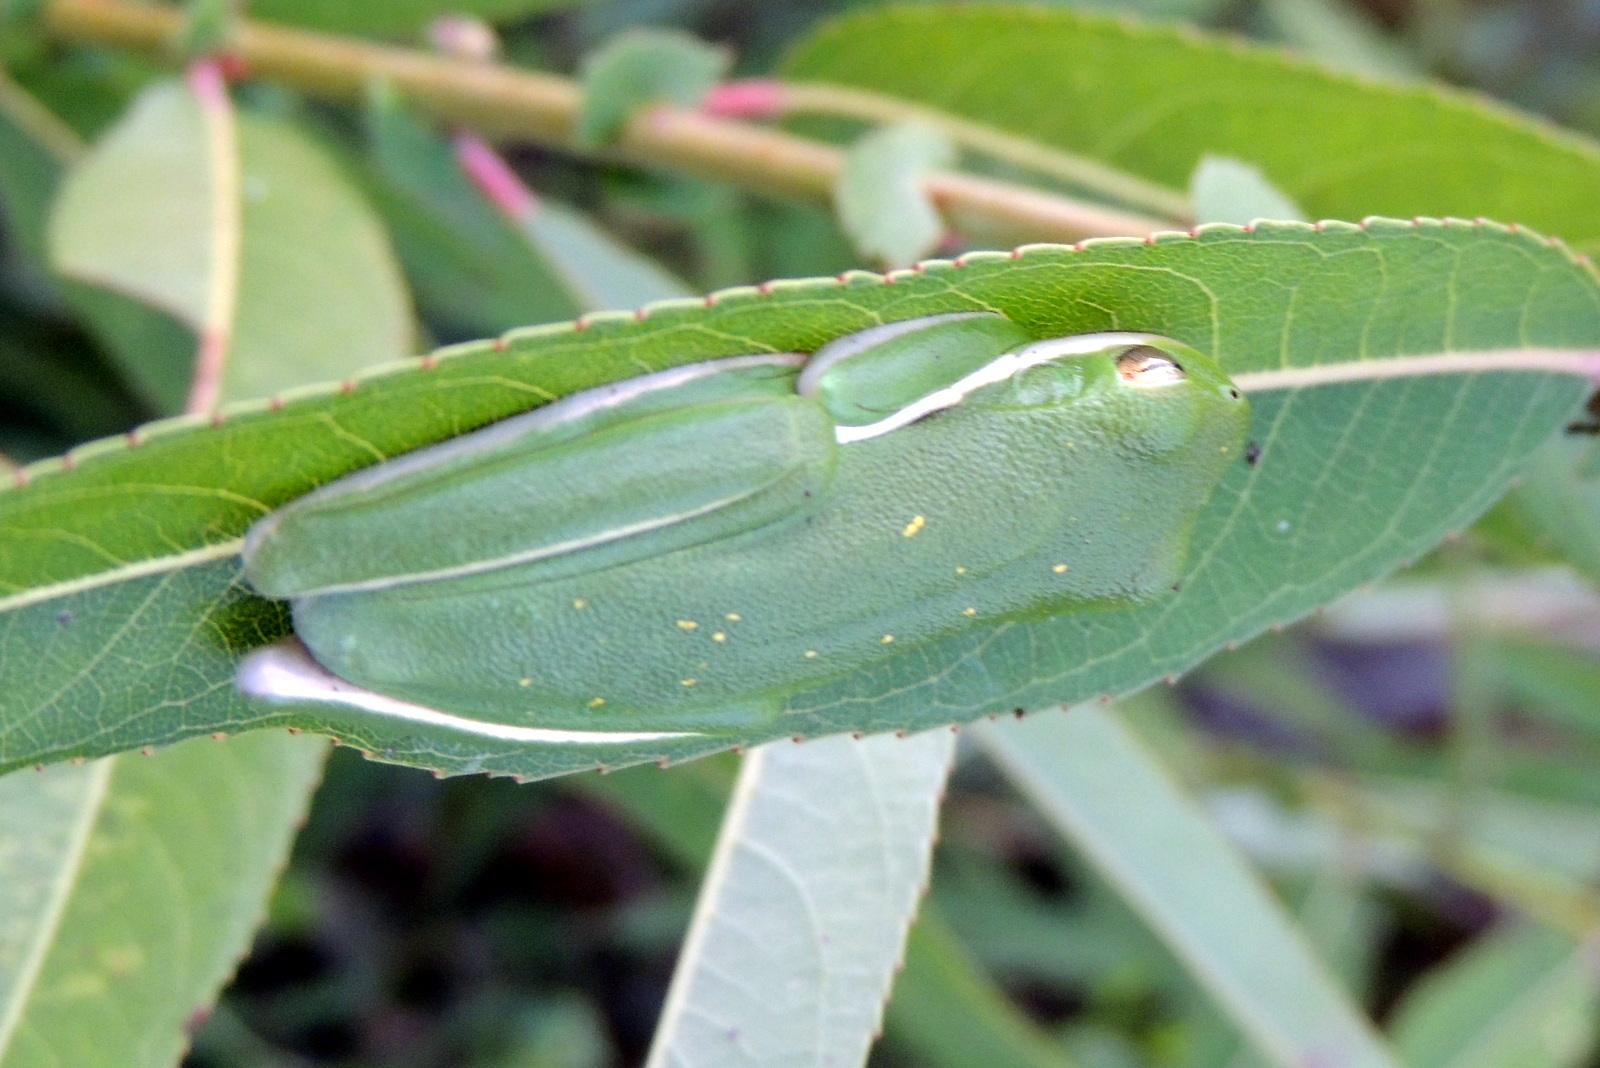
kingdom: Animalia
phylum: Chordata
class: Amphibia
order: Anura
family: Hylidae
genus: Dryophytes
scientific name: Dryophytes cinereus
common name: Green treefrog
